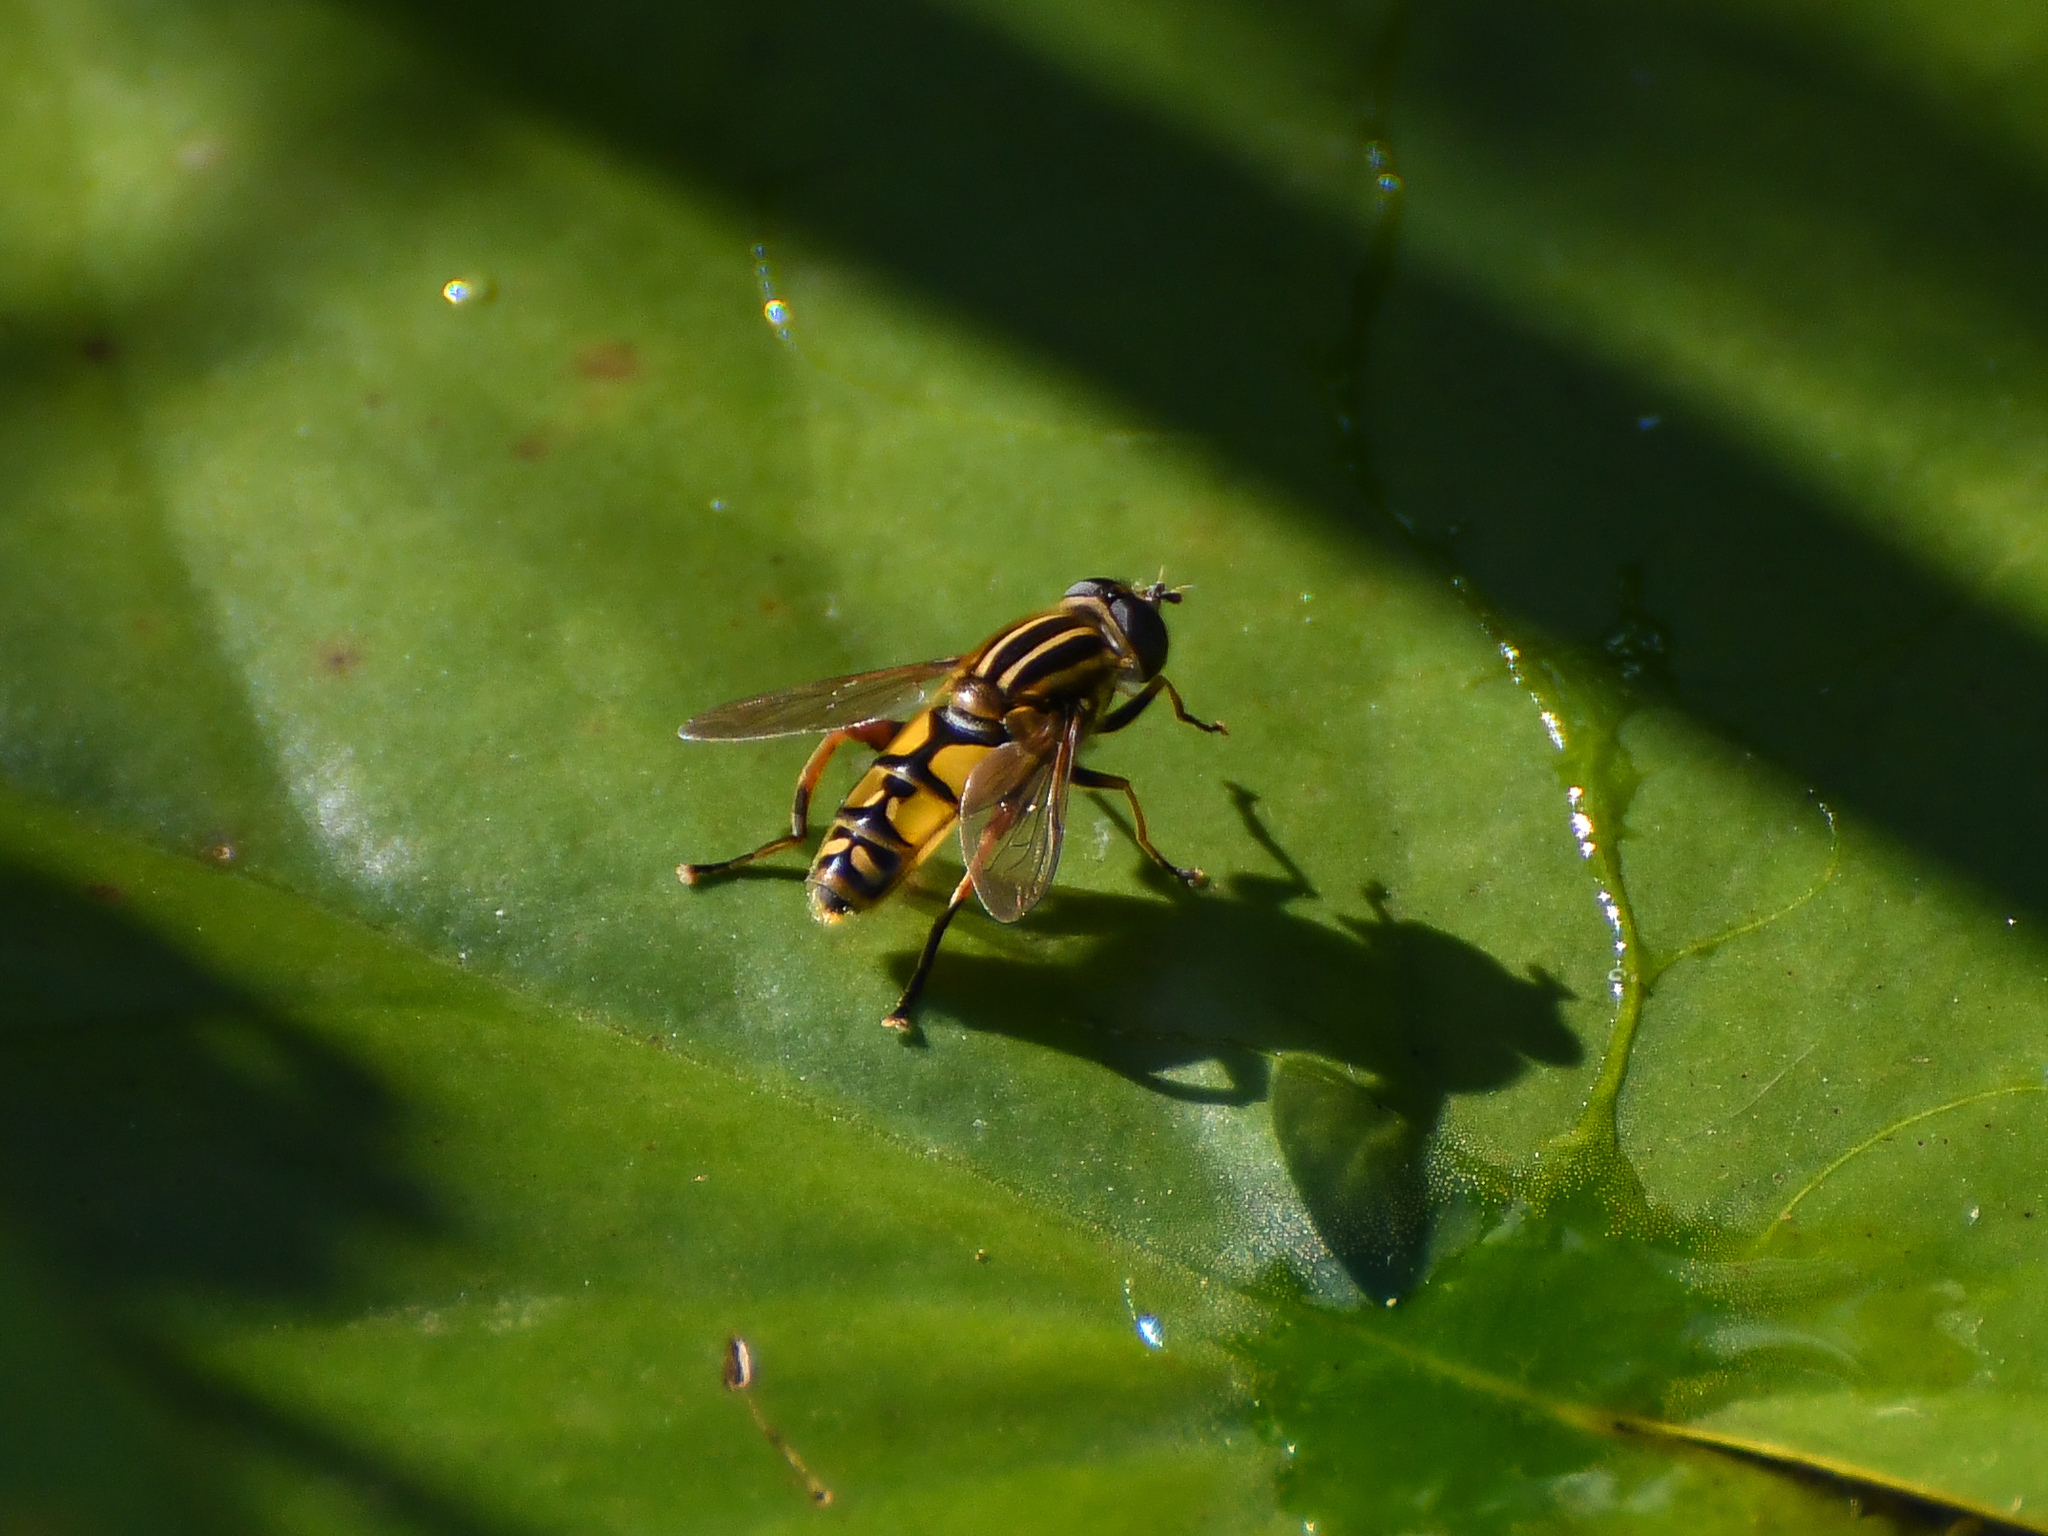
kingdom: Animalia
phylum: Arthropoda
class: Insecta
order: Diptera
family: Syrphidae
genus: Helophilus
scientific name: Helophilus pendulus
